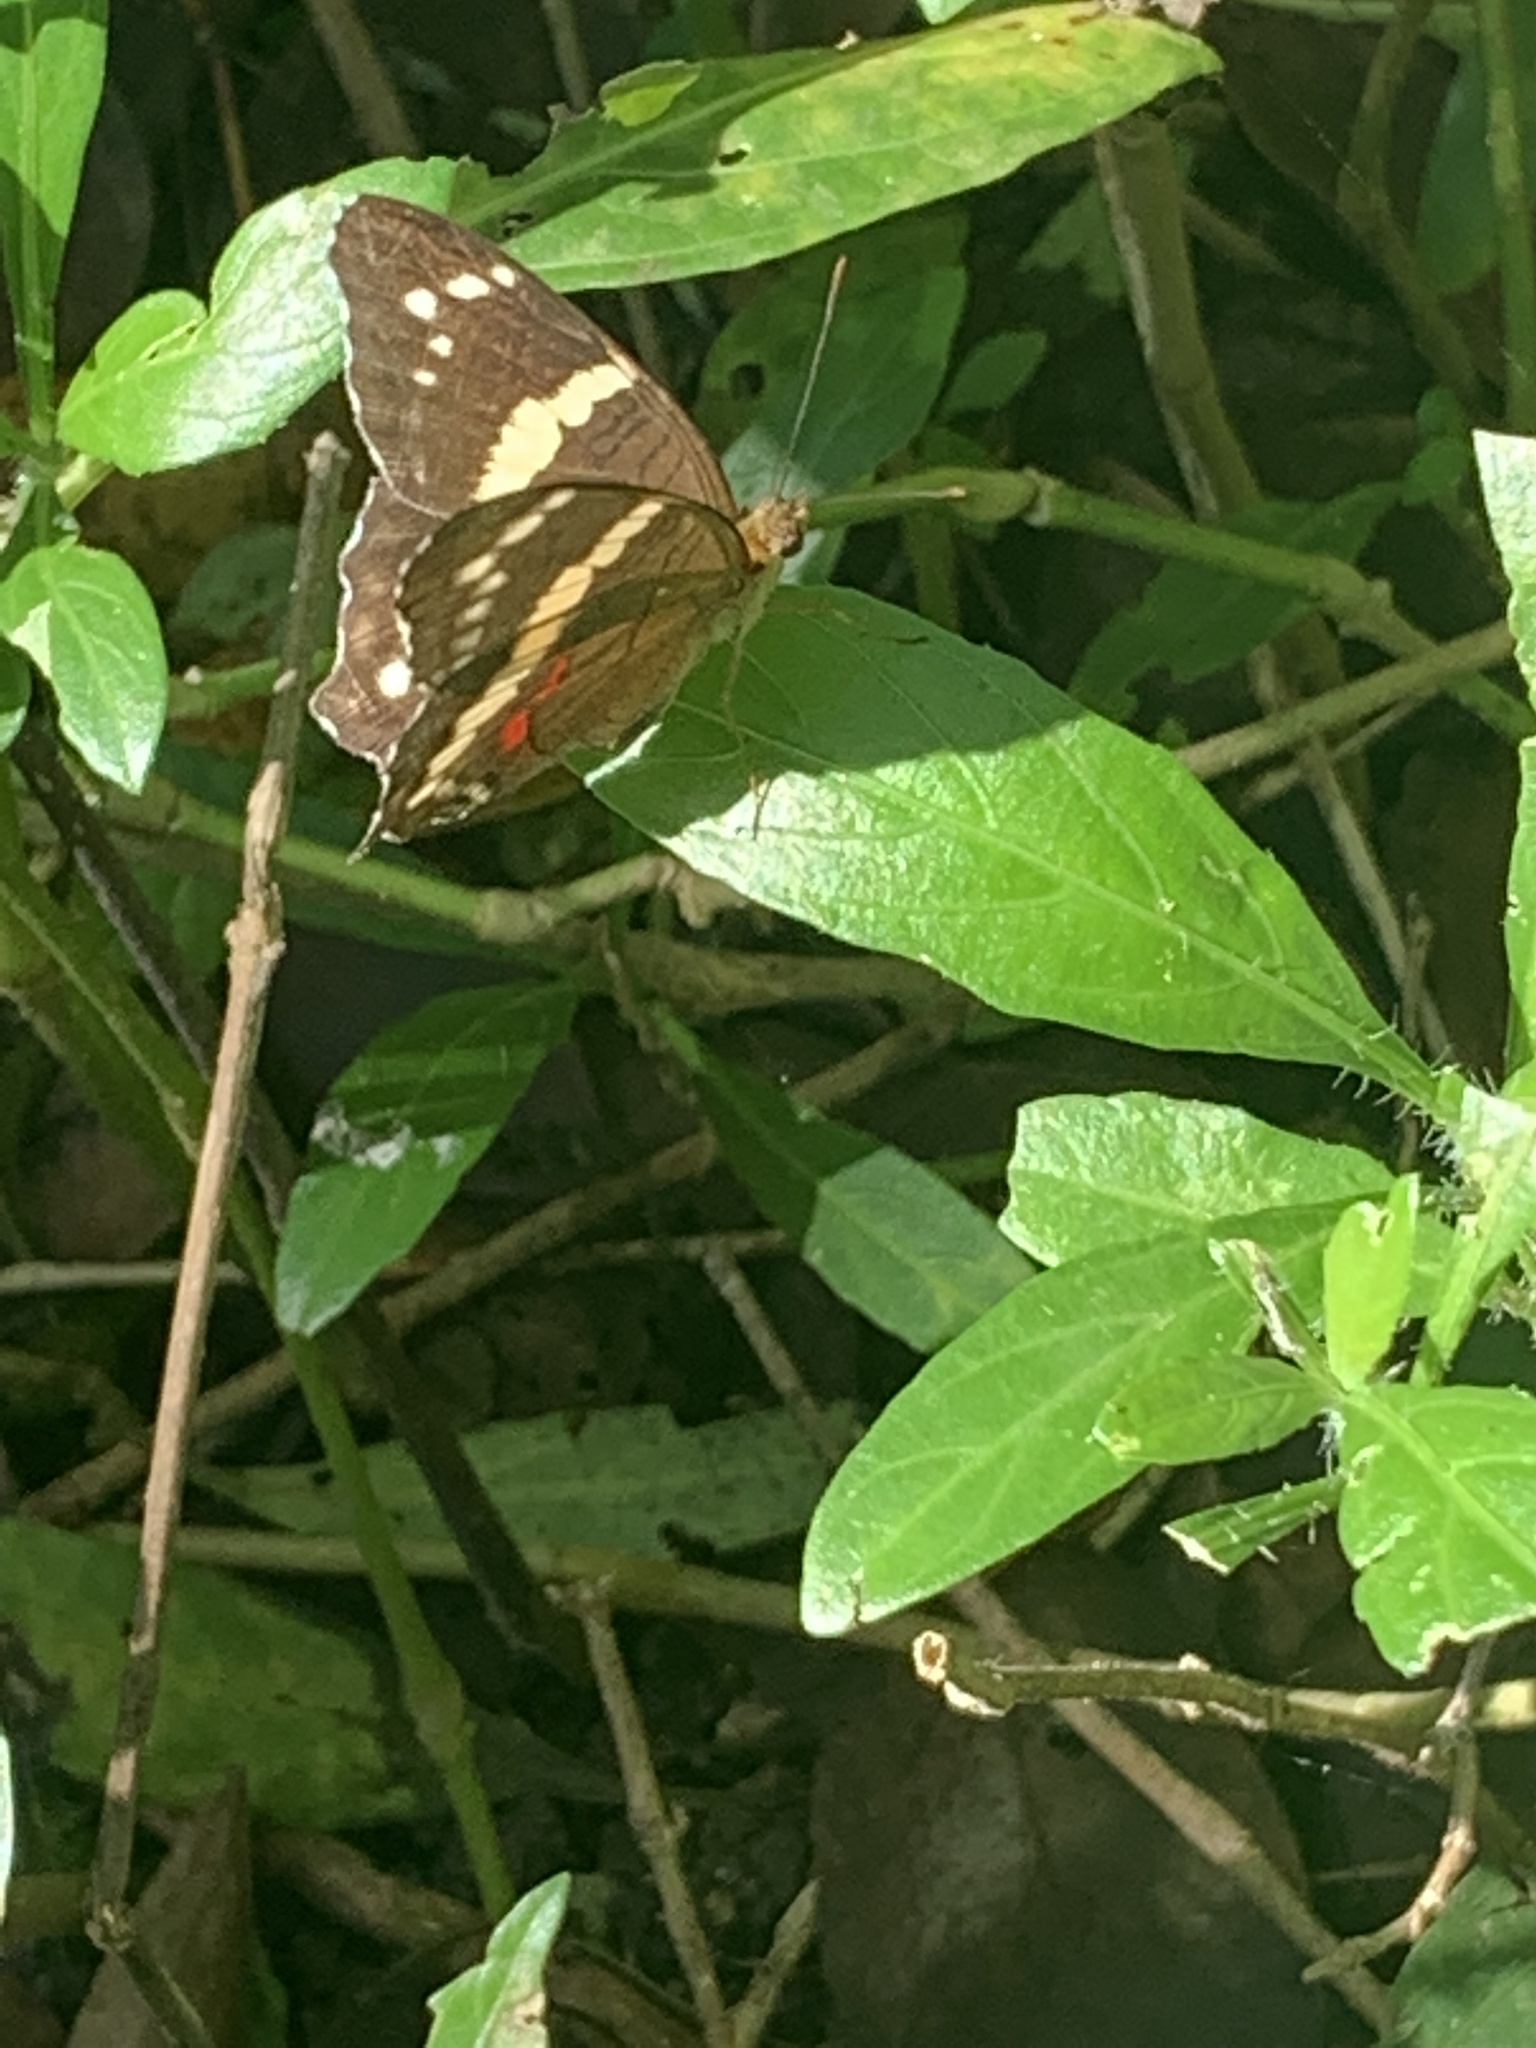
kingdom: Animalia
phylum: Arthropoda
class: Insecta
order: Lepidoptera
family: Nymphalidae
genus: Anartia
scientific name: Anartia fatima
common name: Banded peacock
